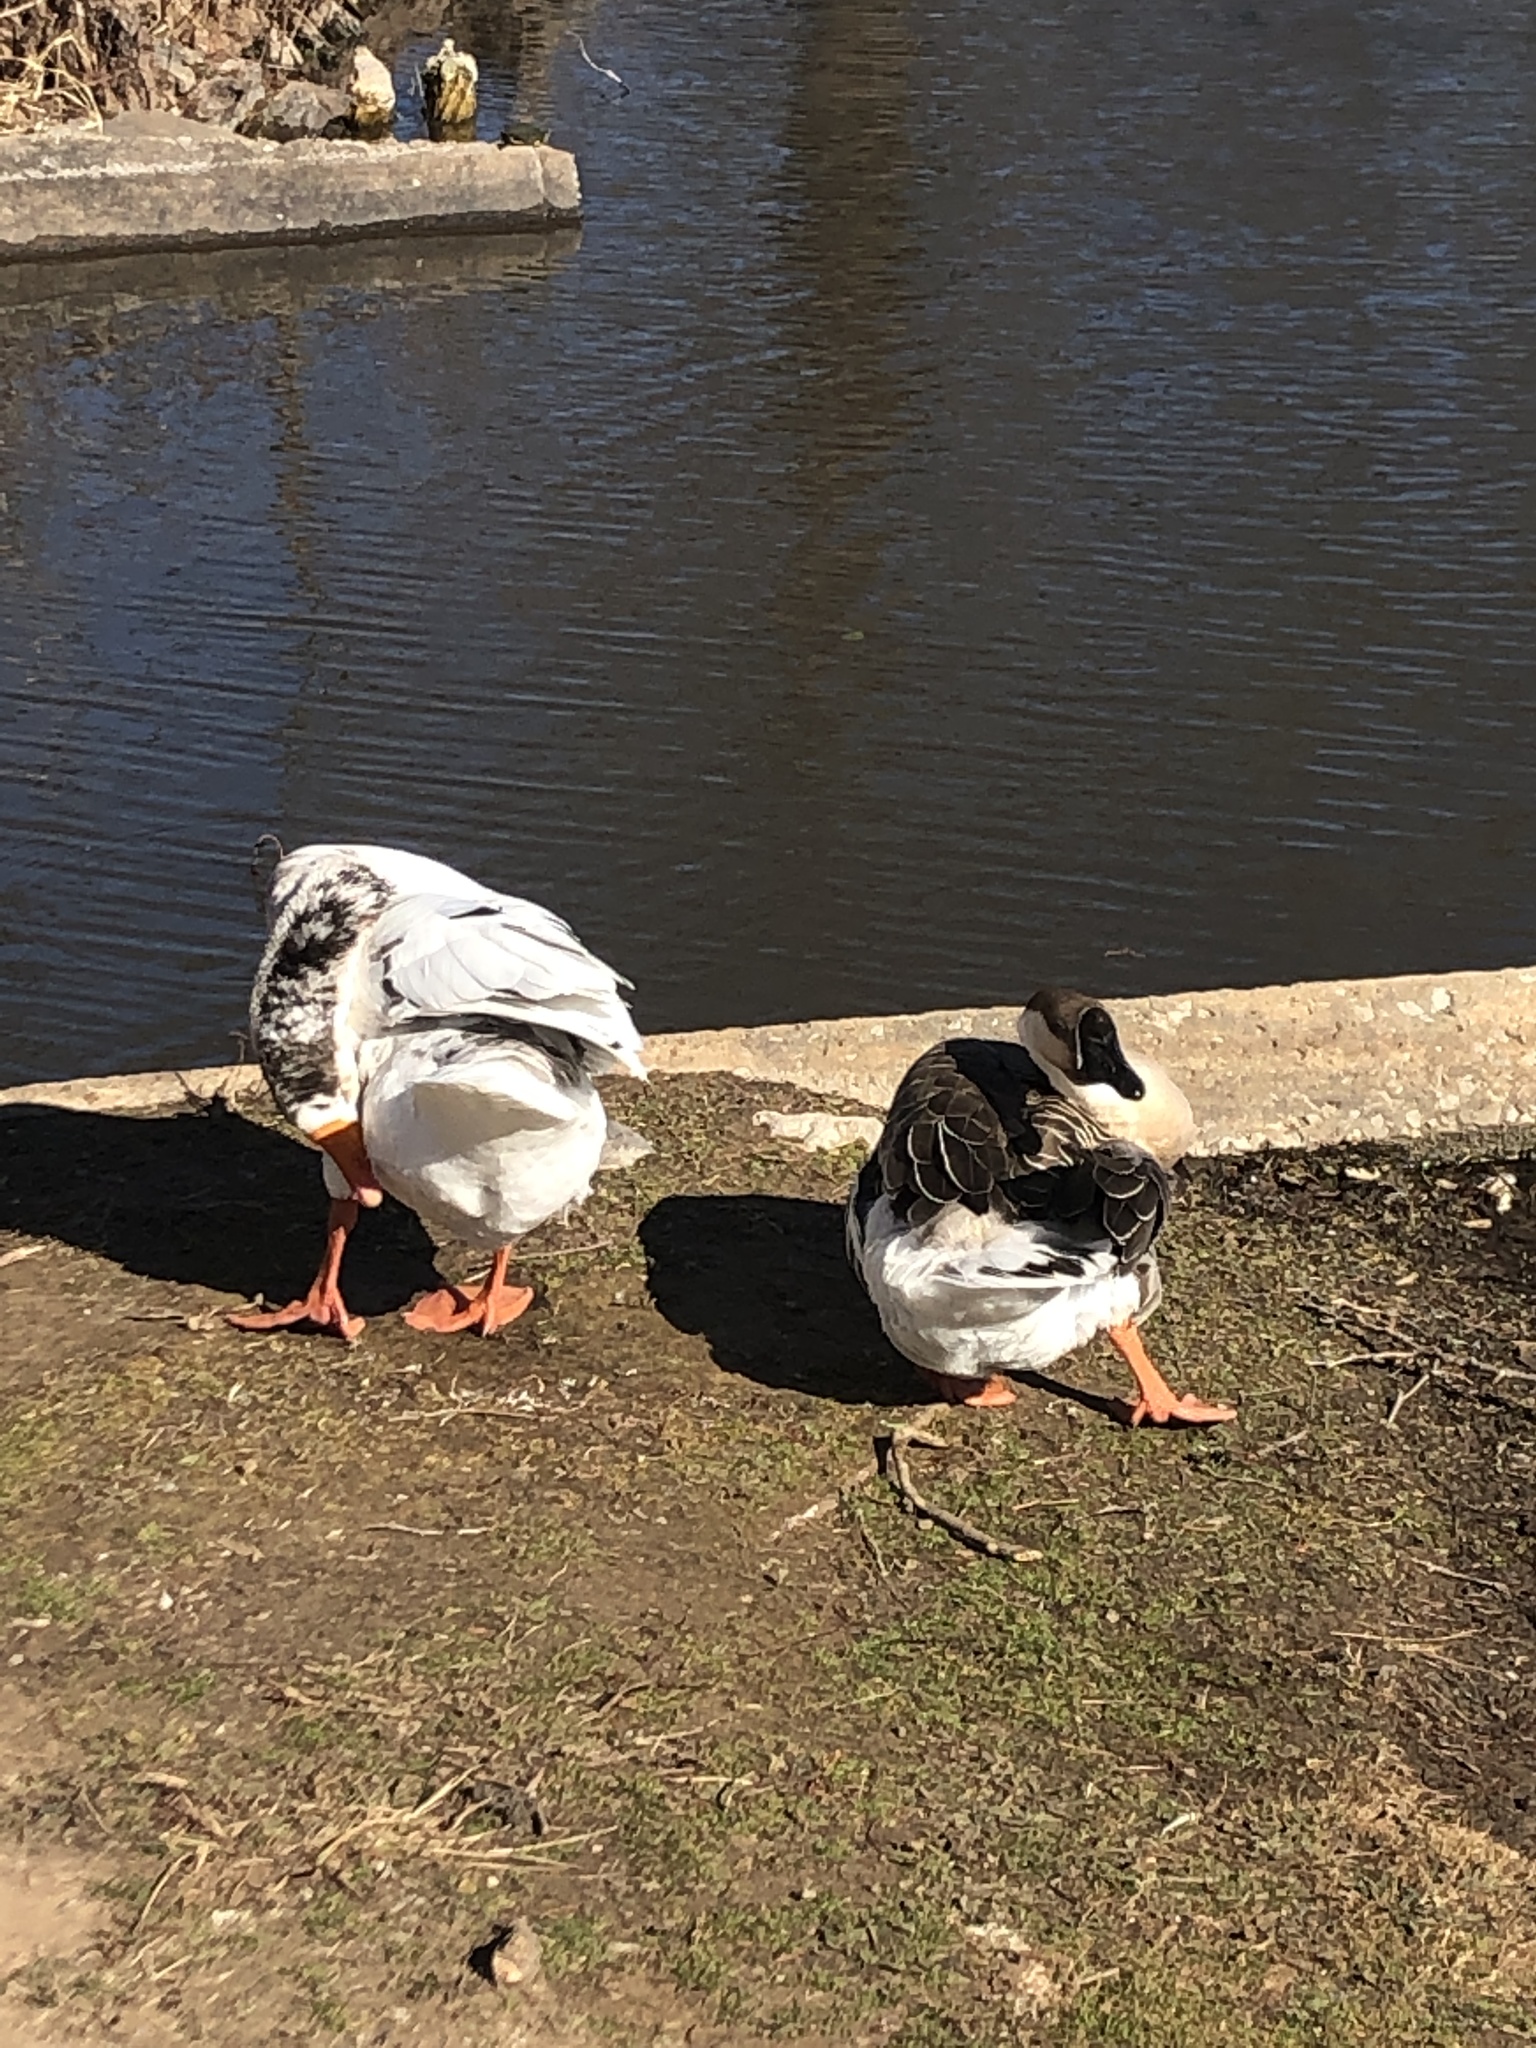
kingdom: Animalia
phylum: Chordata
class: Aves
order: Anseriformes
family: Anatidae
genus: Anser
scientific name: Anser cygnoides
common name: Swan goose
